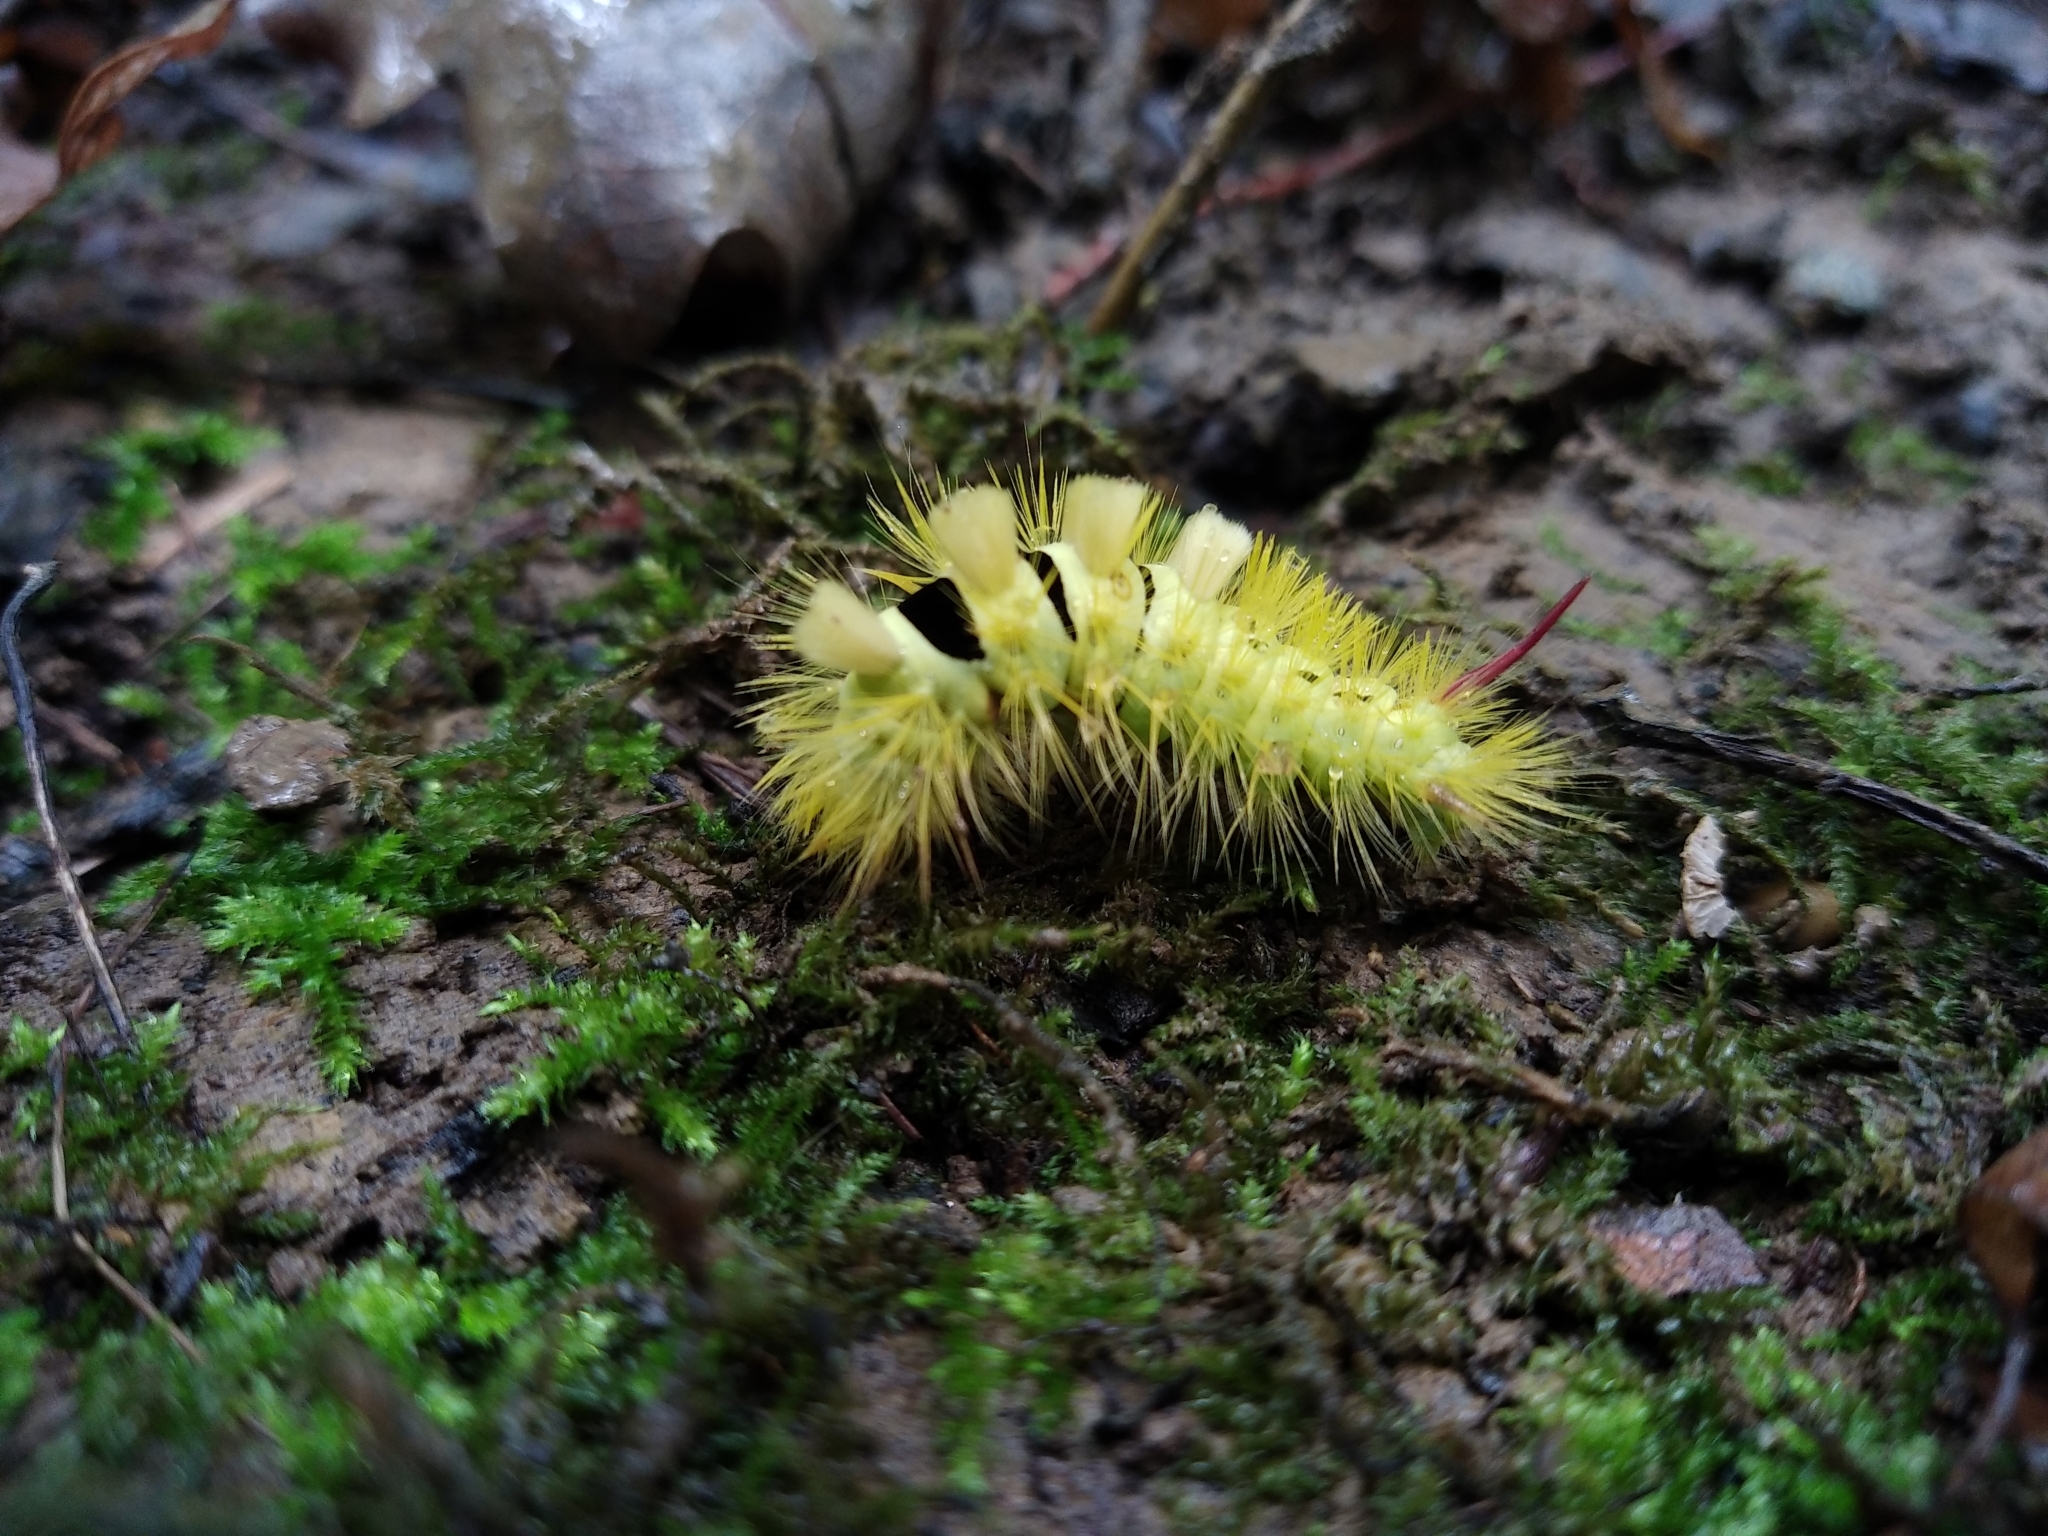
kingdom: Animalia
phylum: Arthropoda
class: Insecta
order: Lepidoptera
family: Erebidae
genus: Calliteara
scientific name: Calliteara pudibunda
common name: Pale tussock
